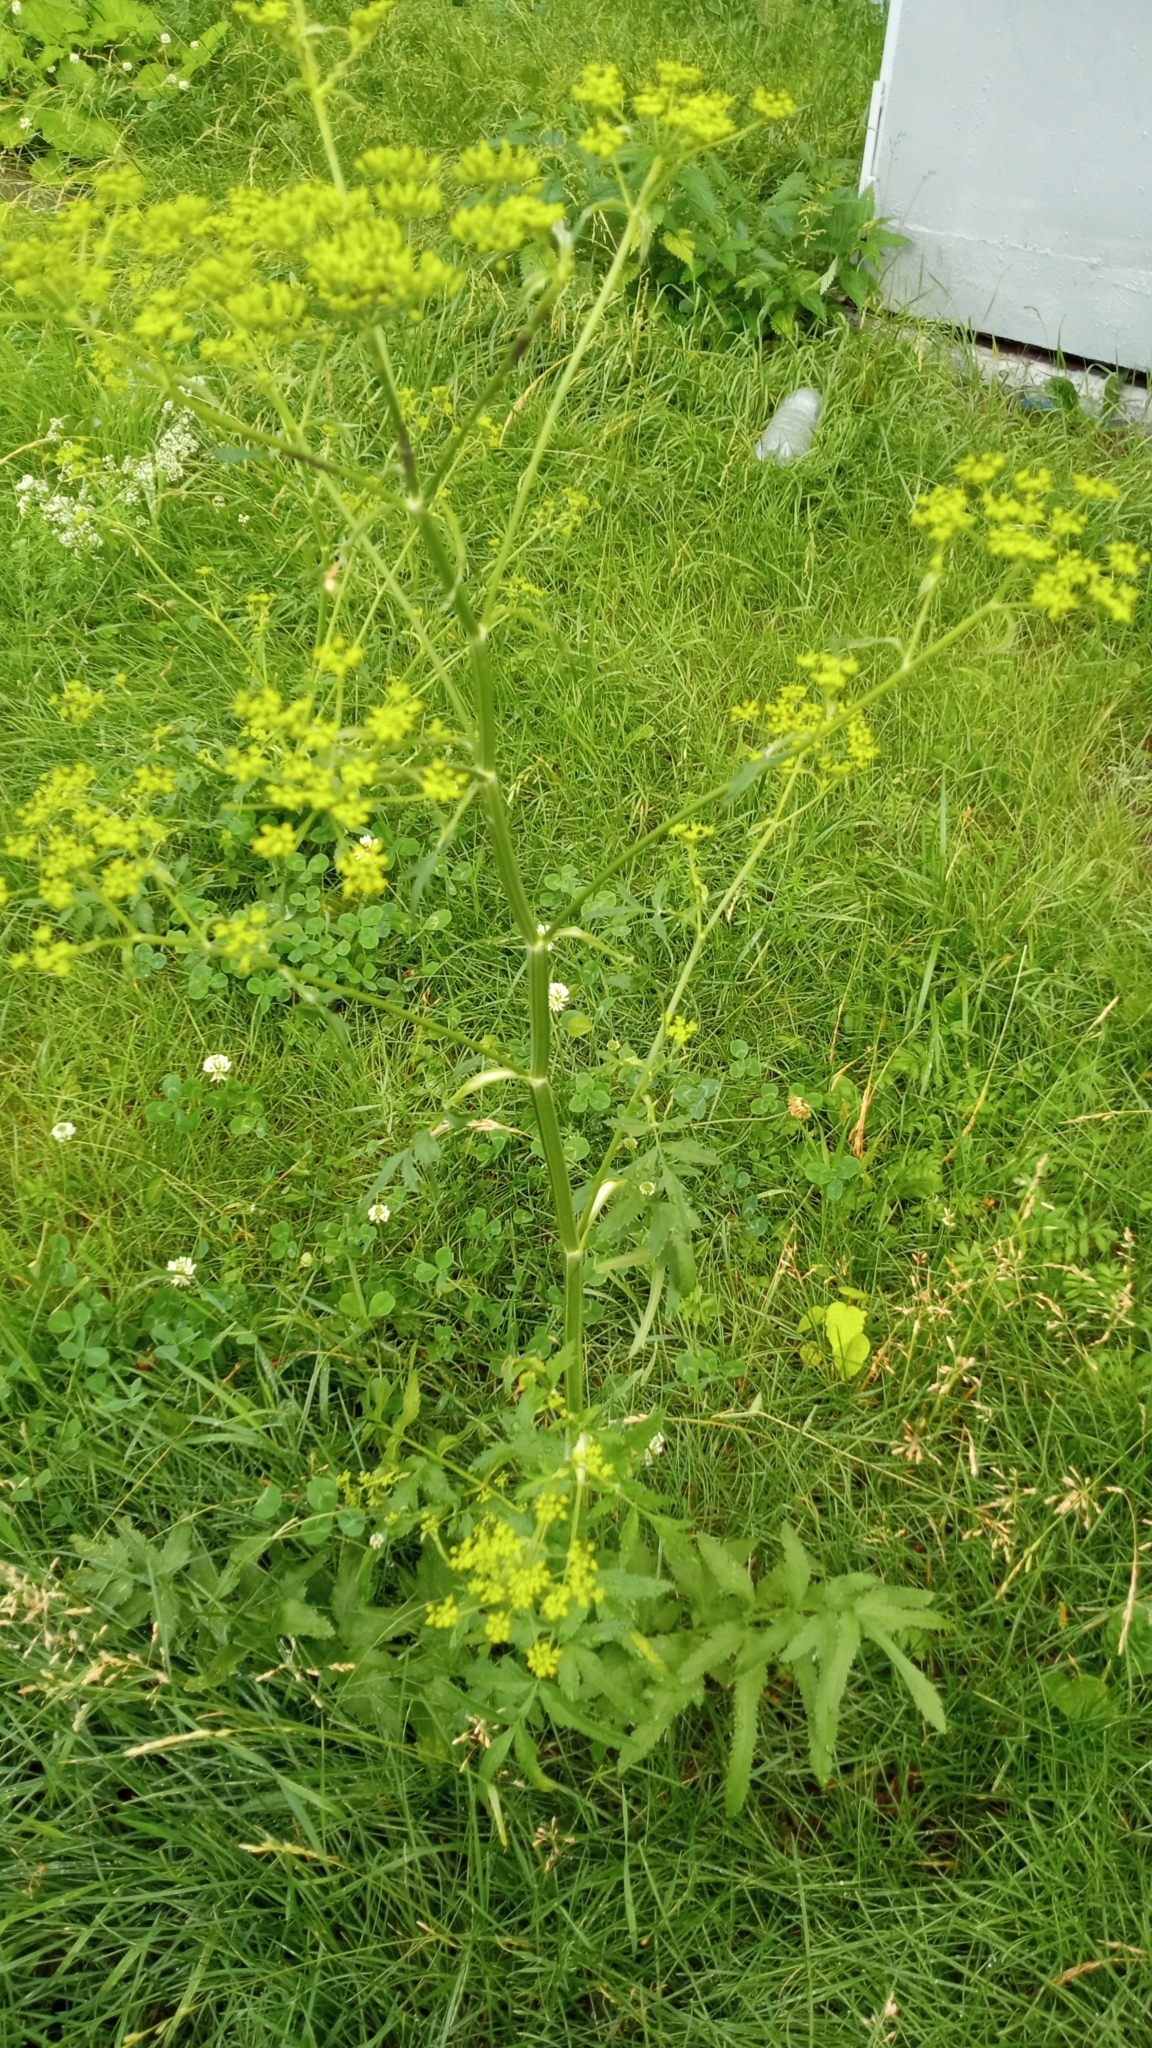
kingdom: Plantae
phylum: Tracheophyta
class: Magnoliopsida
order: Apiales
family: Apiaceae
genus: Pastinaca
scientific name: Pastinaca sativa
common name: Wild parsnip
